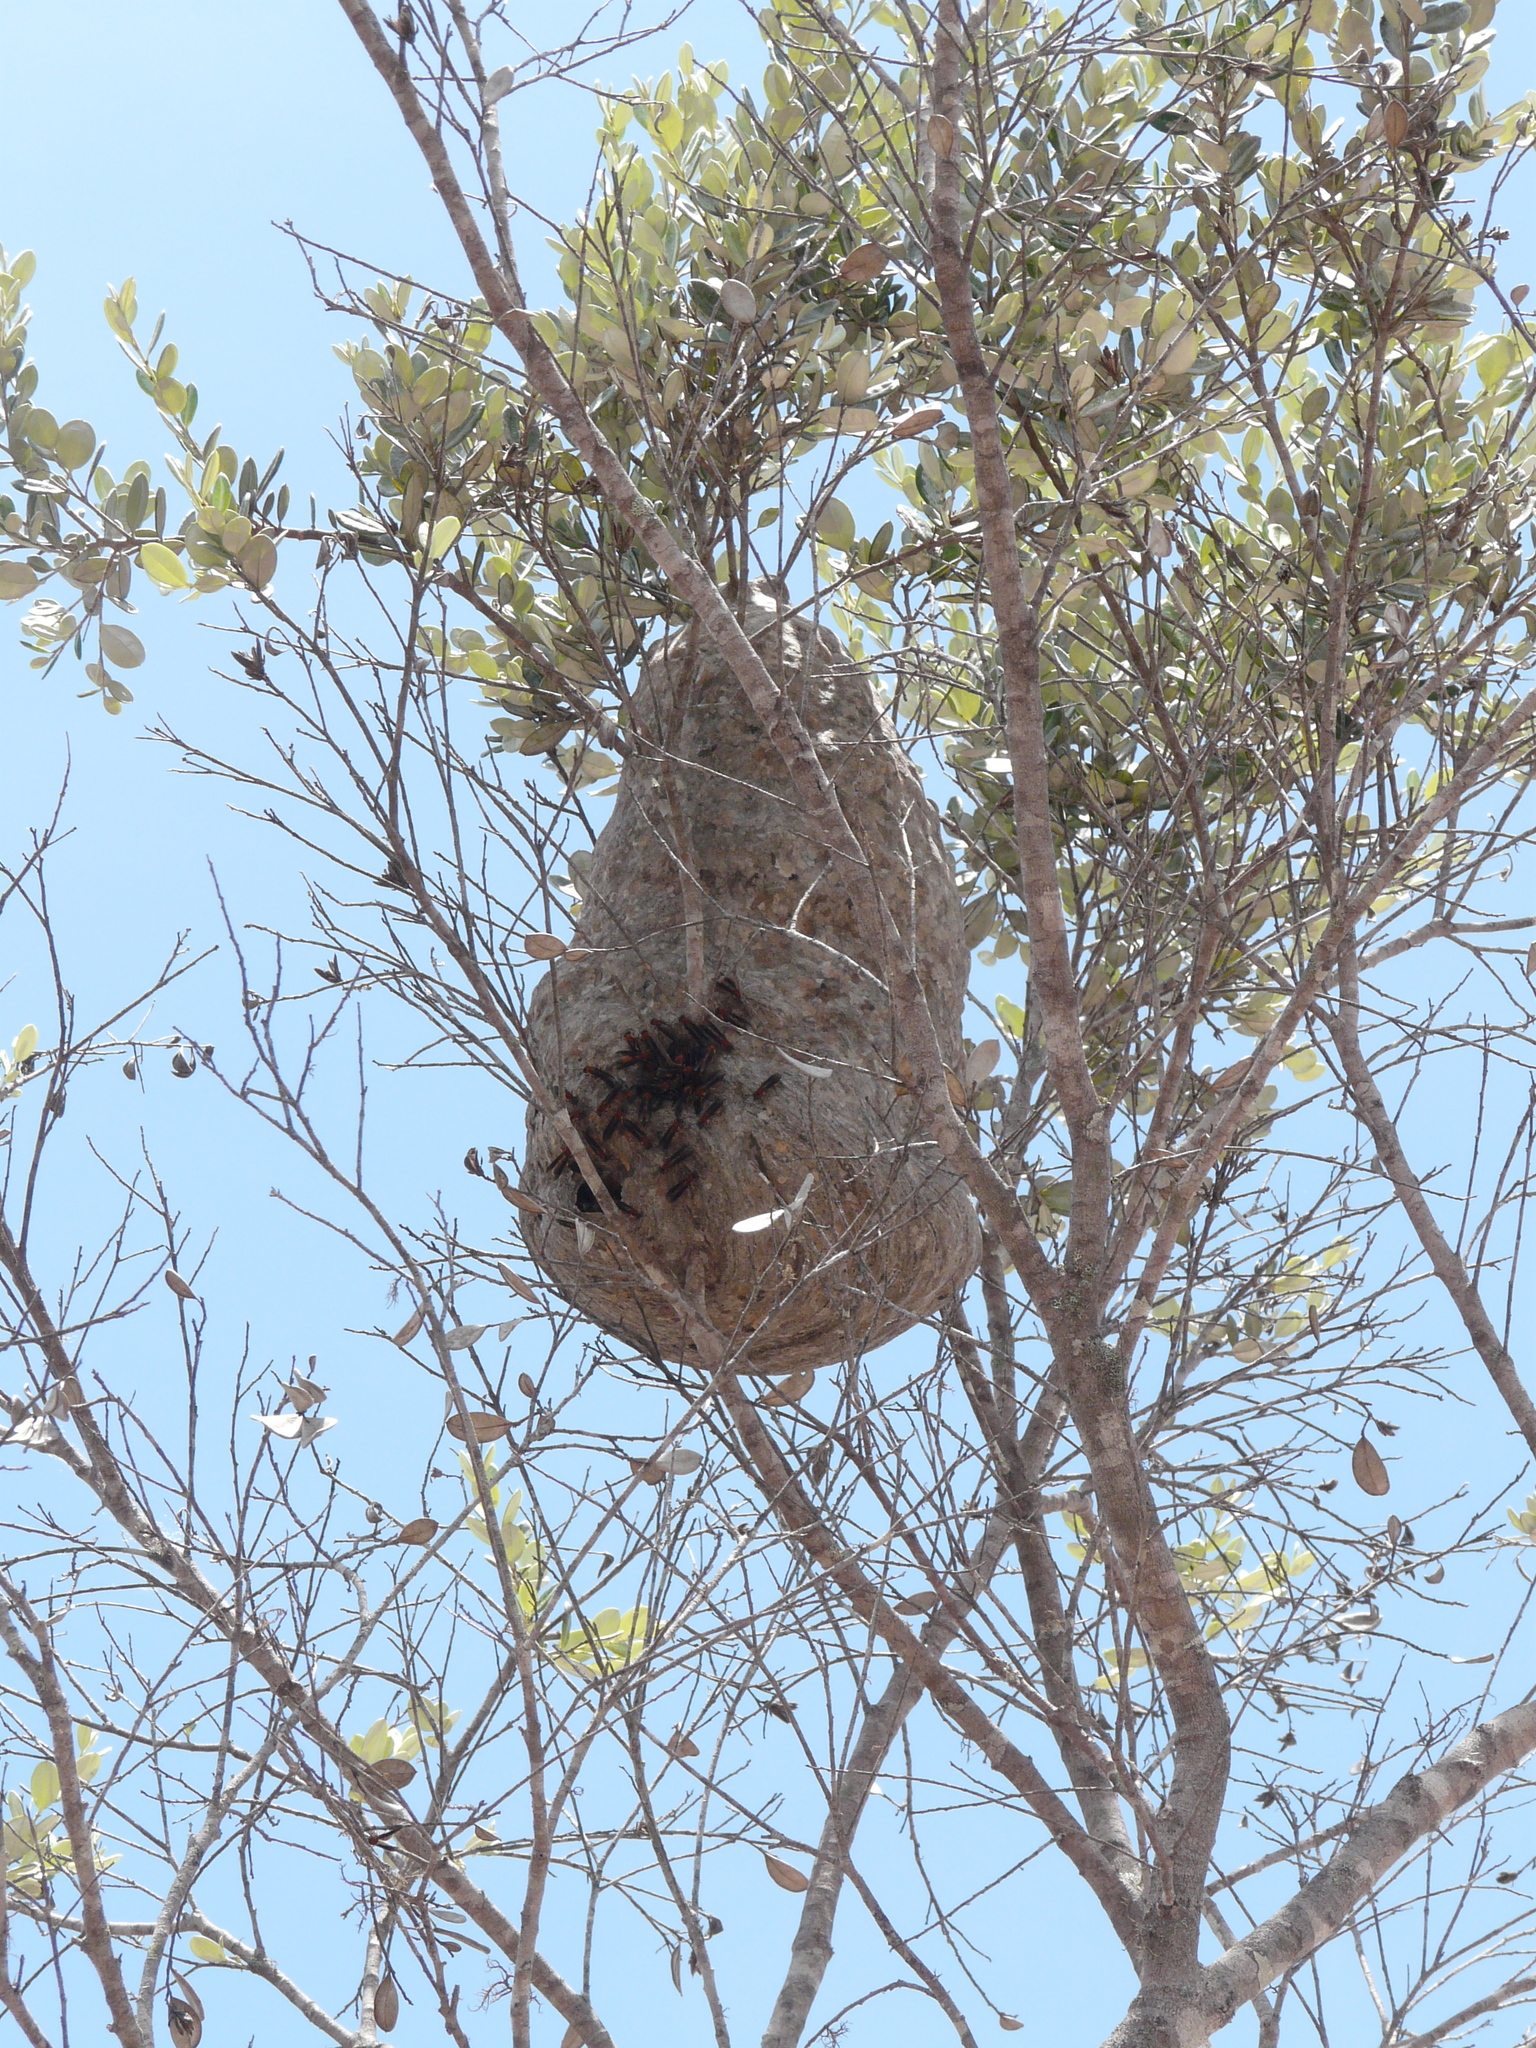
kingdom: Animalia
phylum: Arthropoda
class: Insecta
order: Hymenoptera
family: Eumenidae
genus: Polybia
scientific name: Polybia sericea
